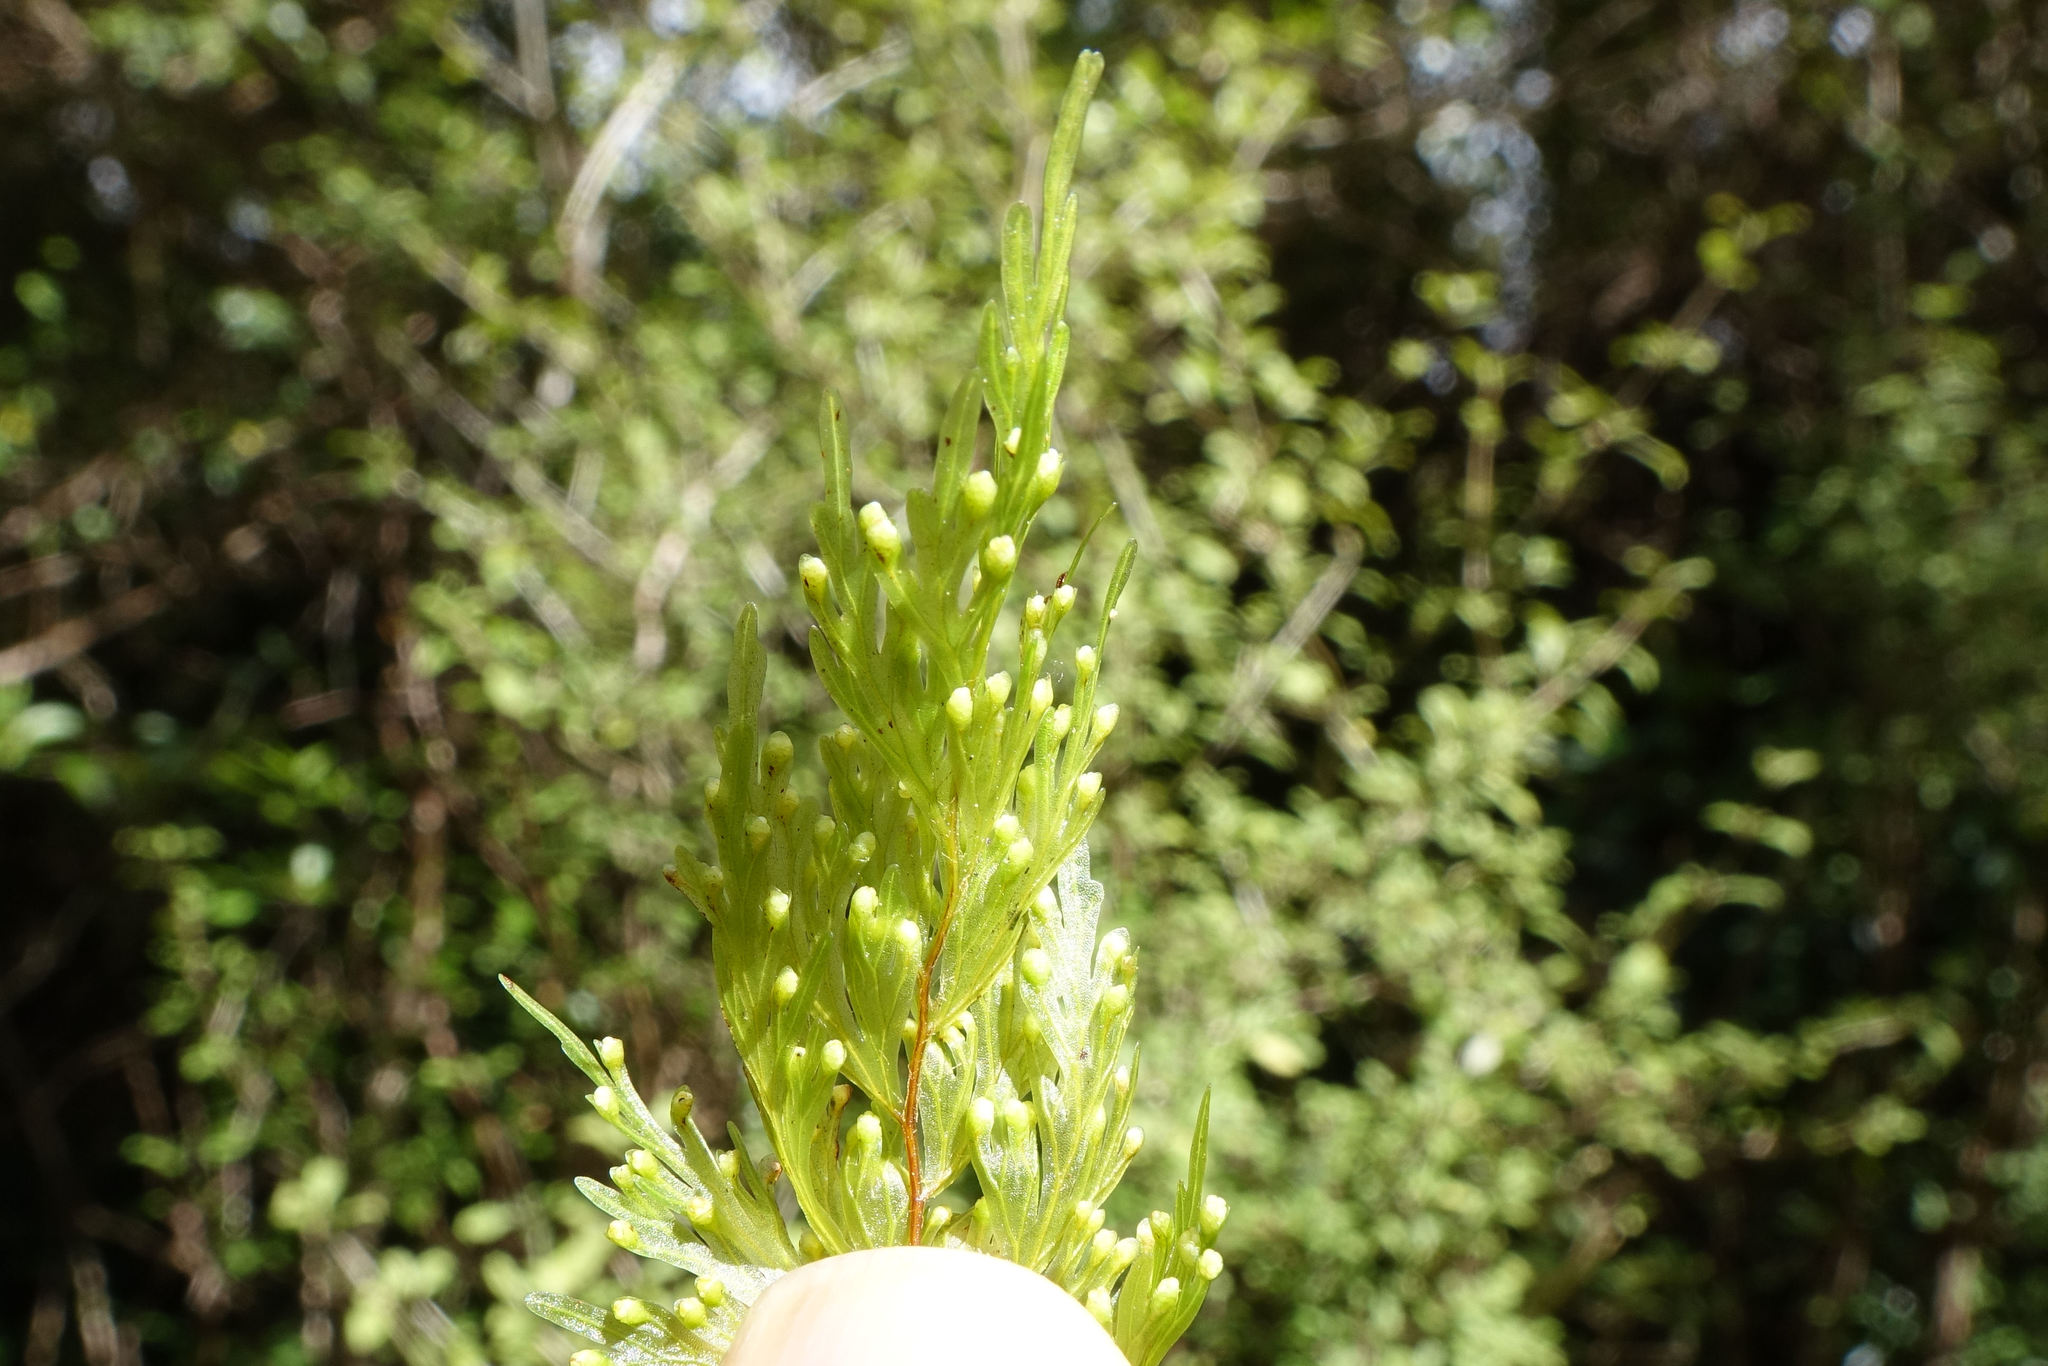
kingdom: Plantae
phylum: Tracheophyta
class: Polypodiopsida
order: Hymenophyllales
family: Hymenophyllaceae
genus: Hymenophyllum
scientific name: Hymenophyllum flabellatum
